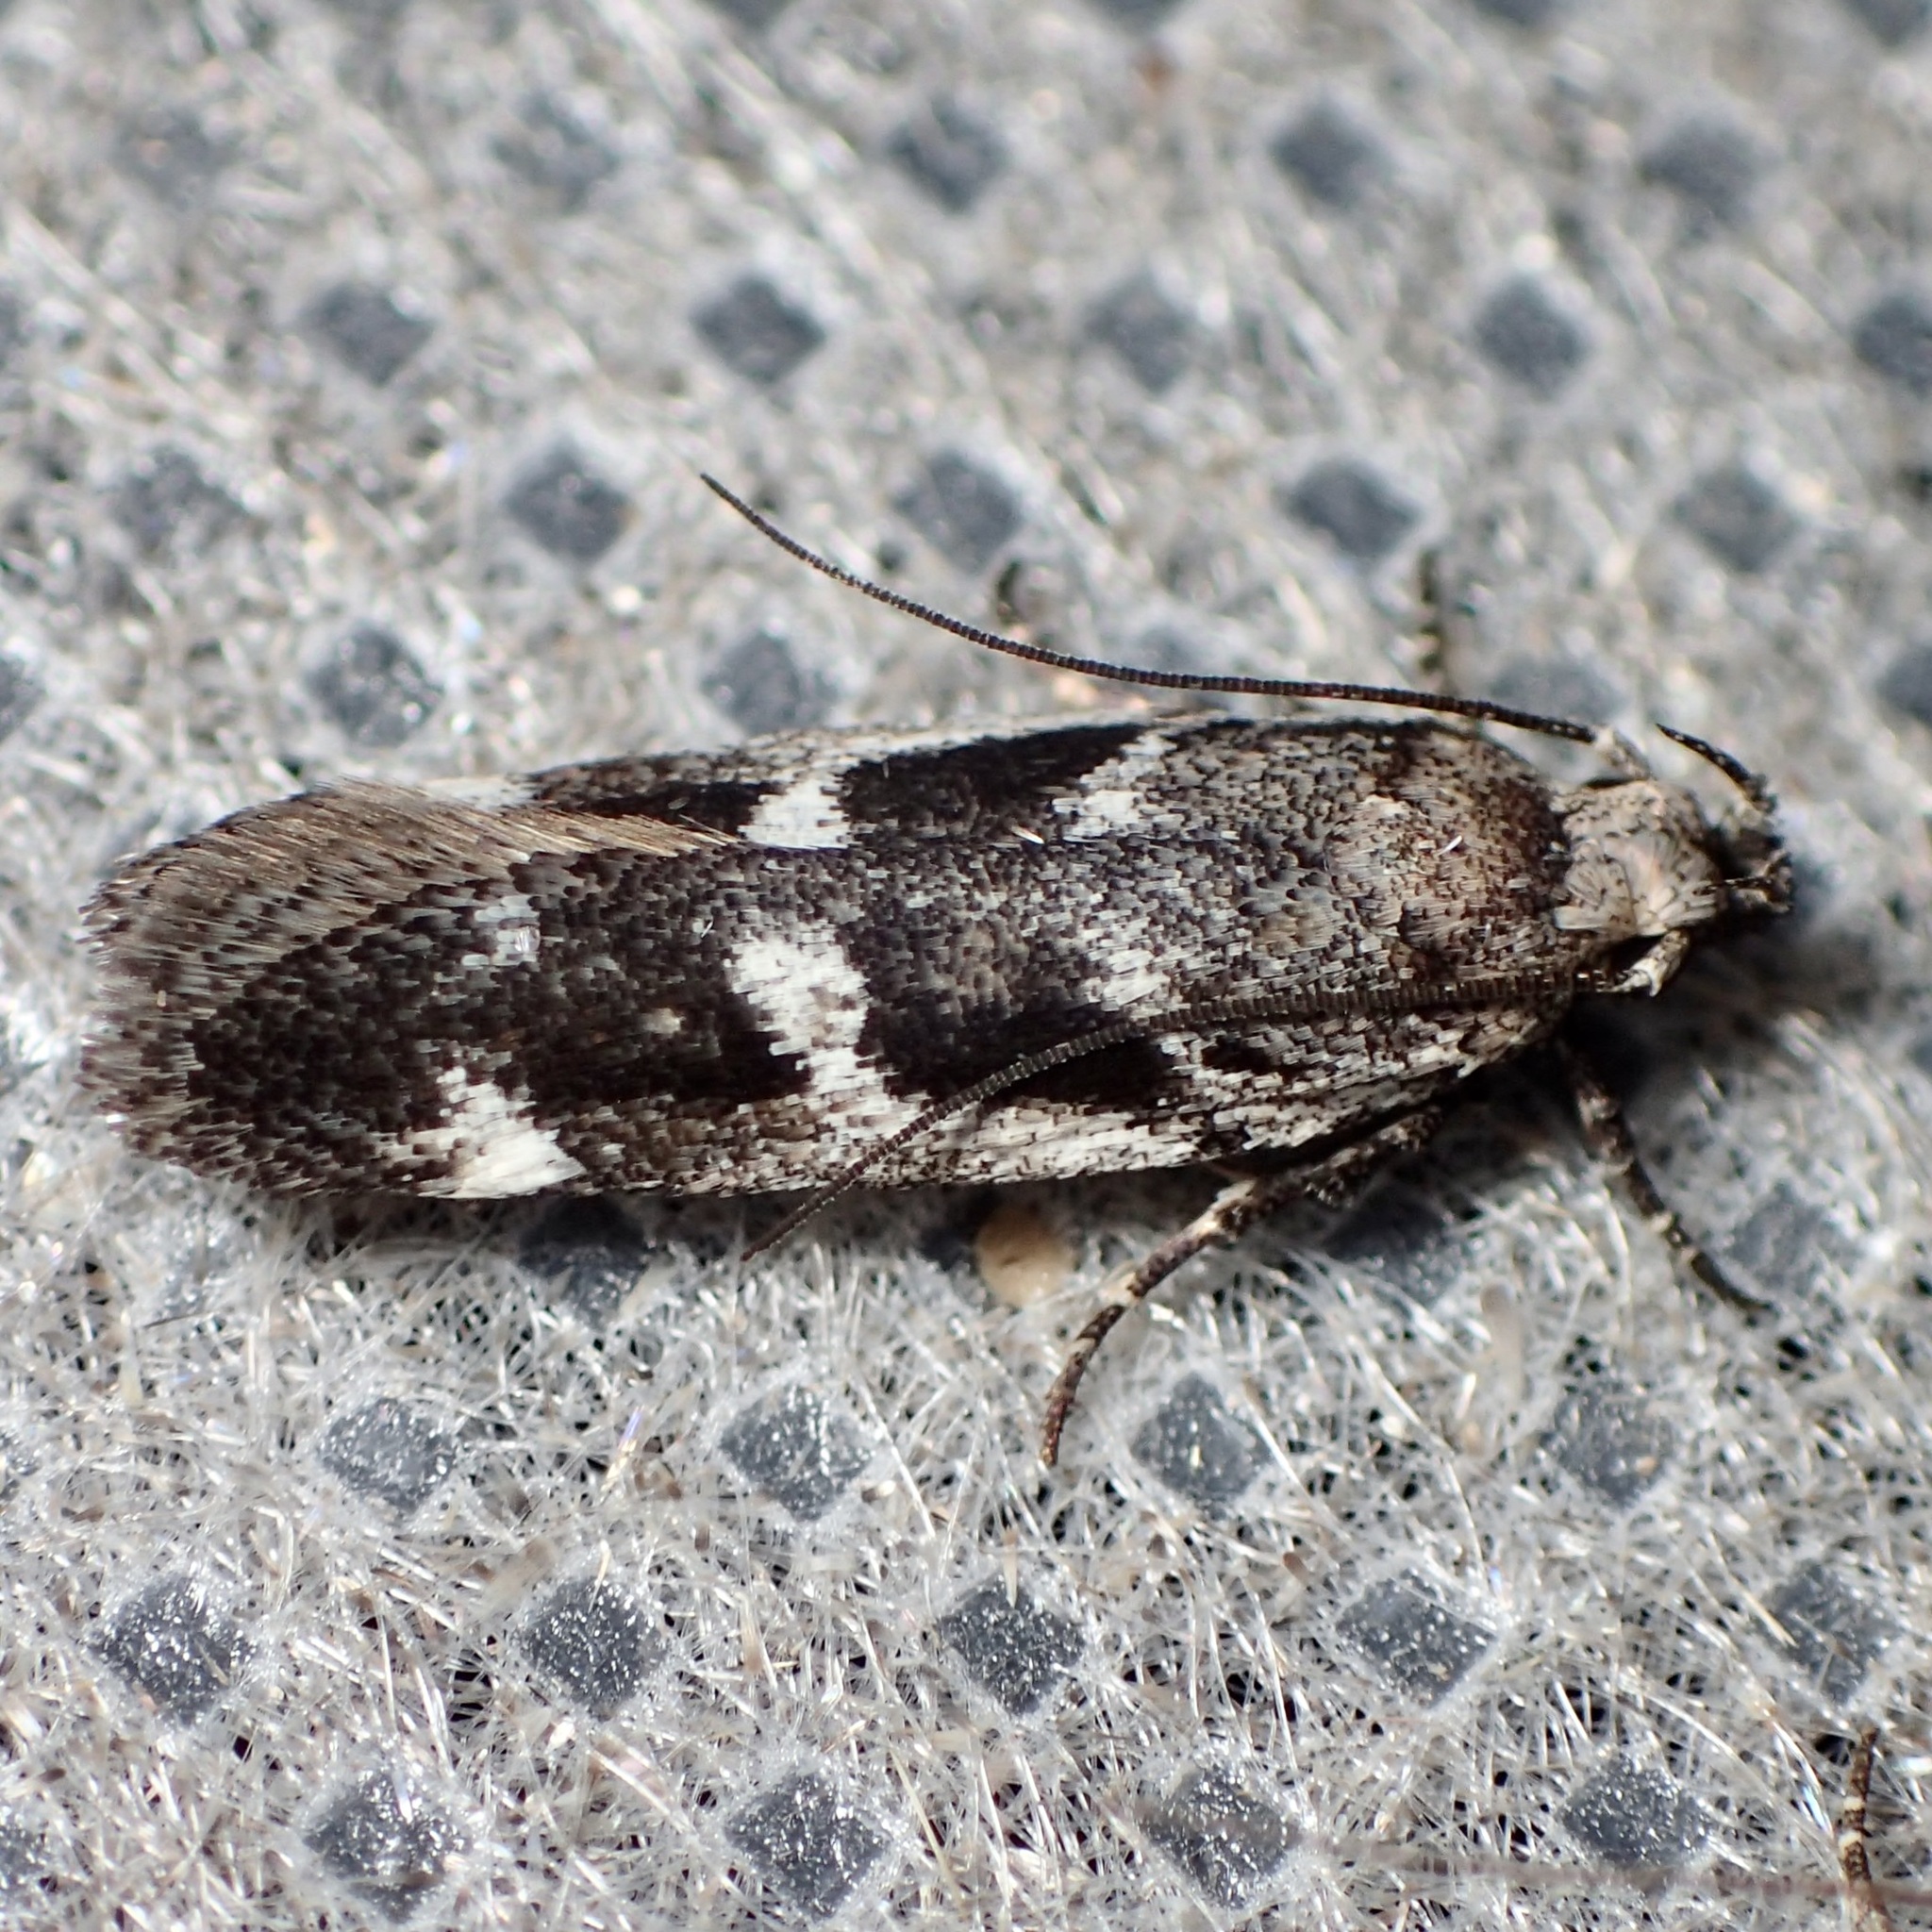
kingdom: Animalia
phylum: Arthropoda
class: Insecta
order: Lepidoptera
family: Gelechiidae
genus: Filatima
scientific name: Filatima obidenna
